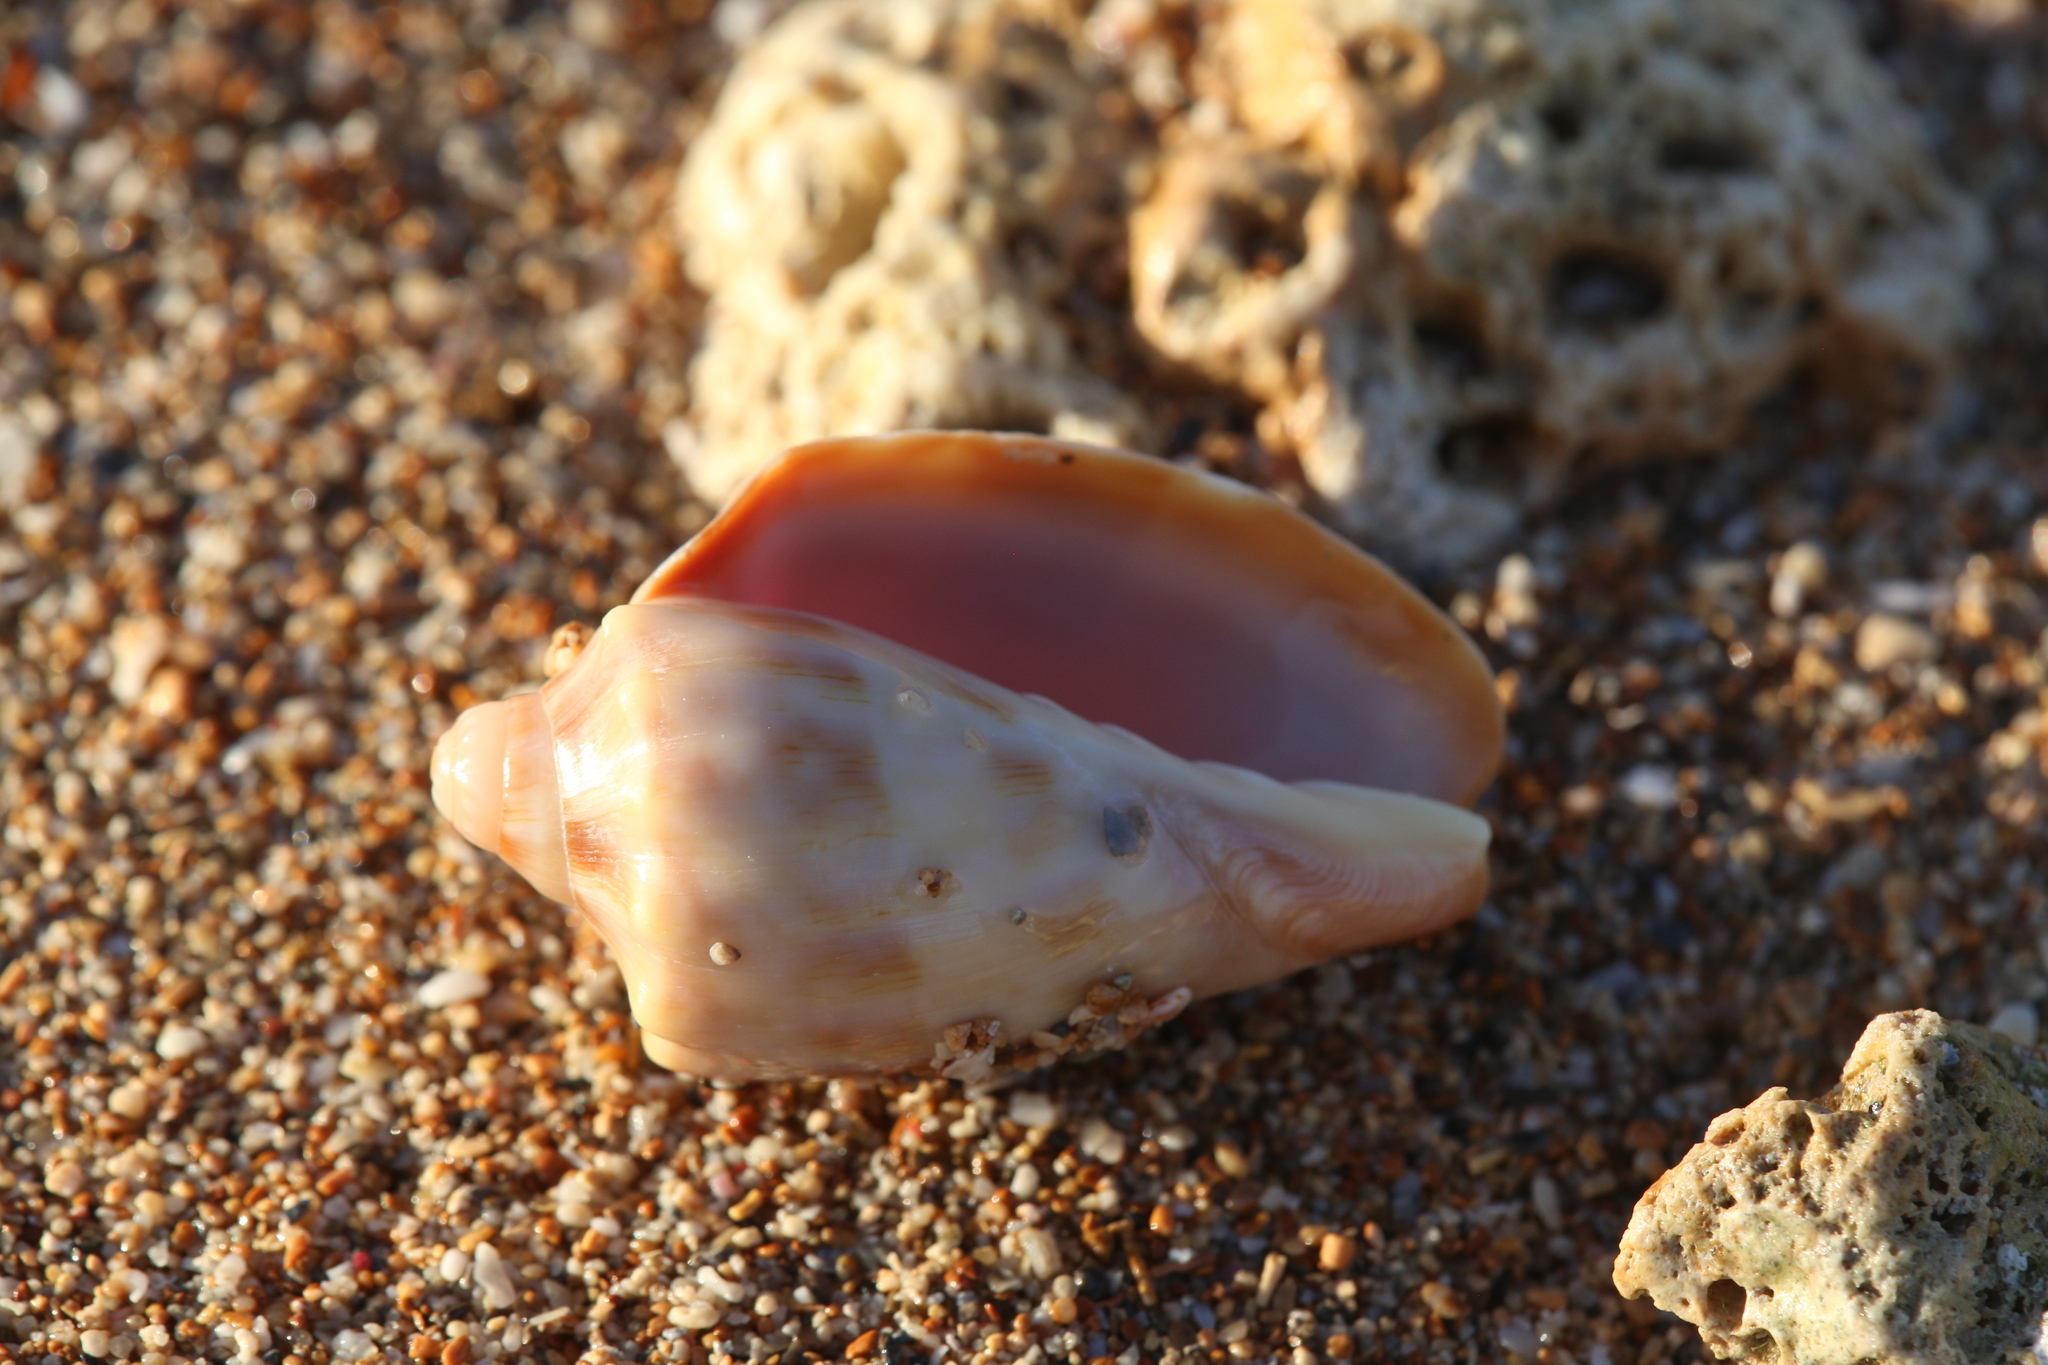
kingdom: Animalia
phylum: Mollusca
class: Gastropoda
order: Neogastropoda
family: Volutidae
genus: Cymbiola
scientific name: Cymbiola nivosa
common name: Snowy volute
